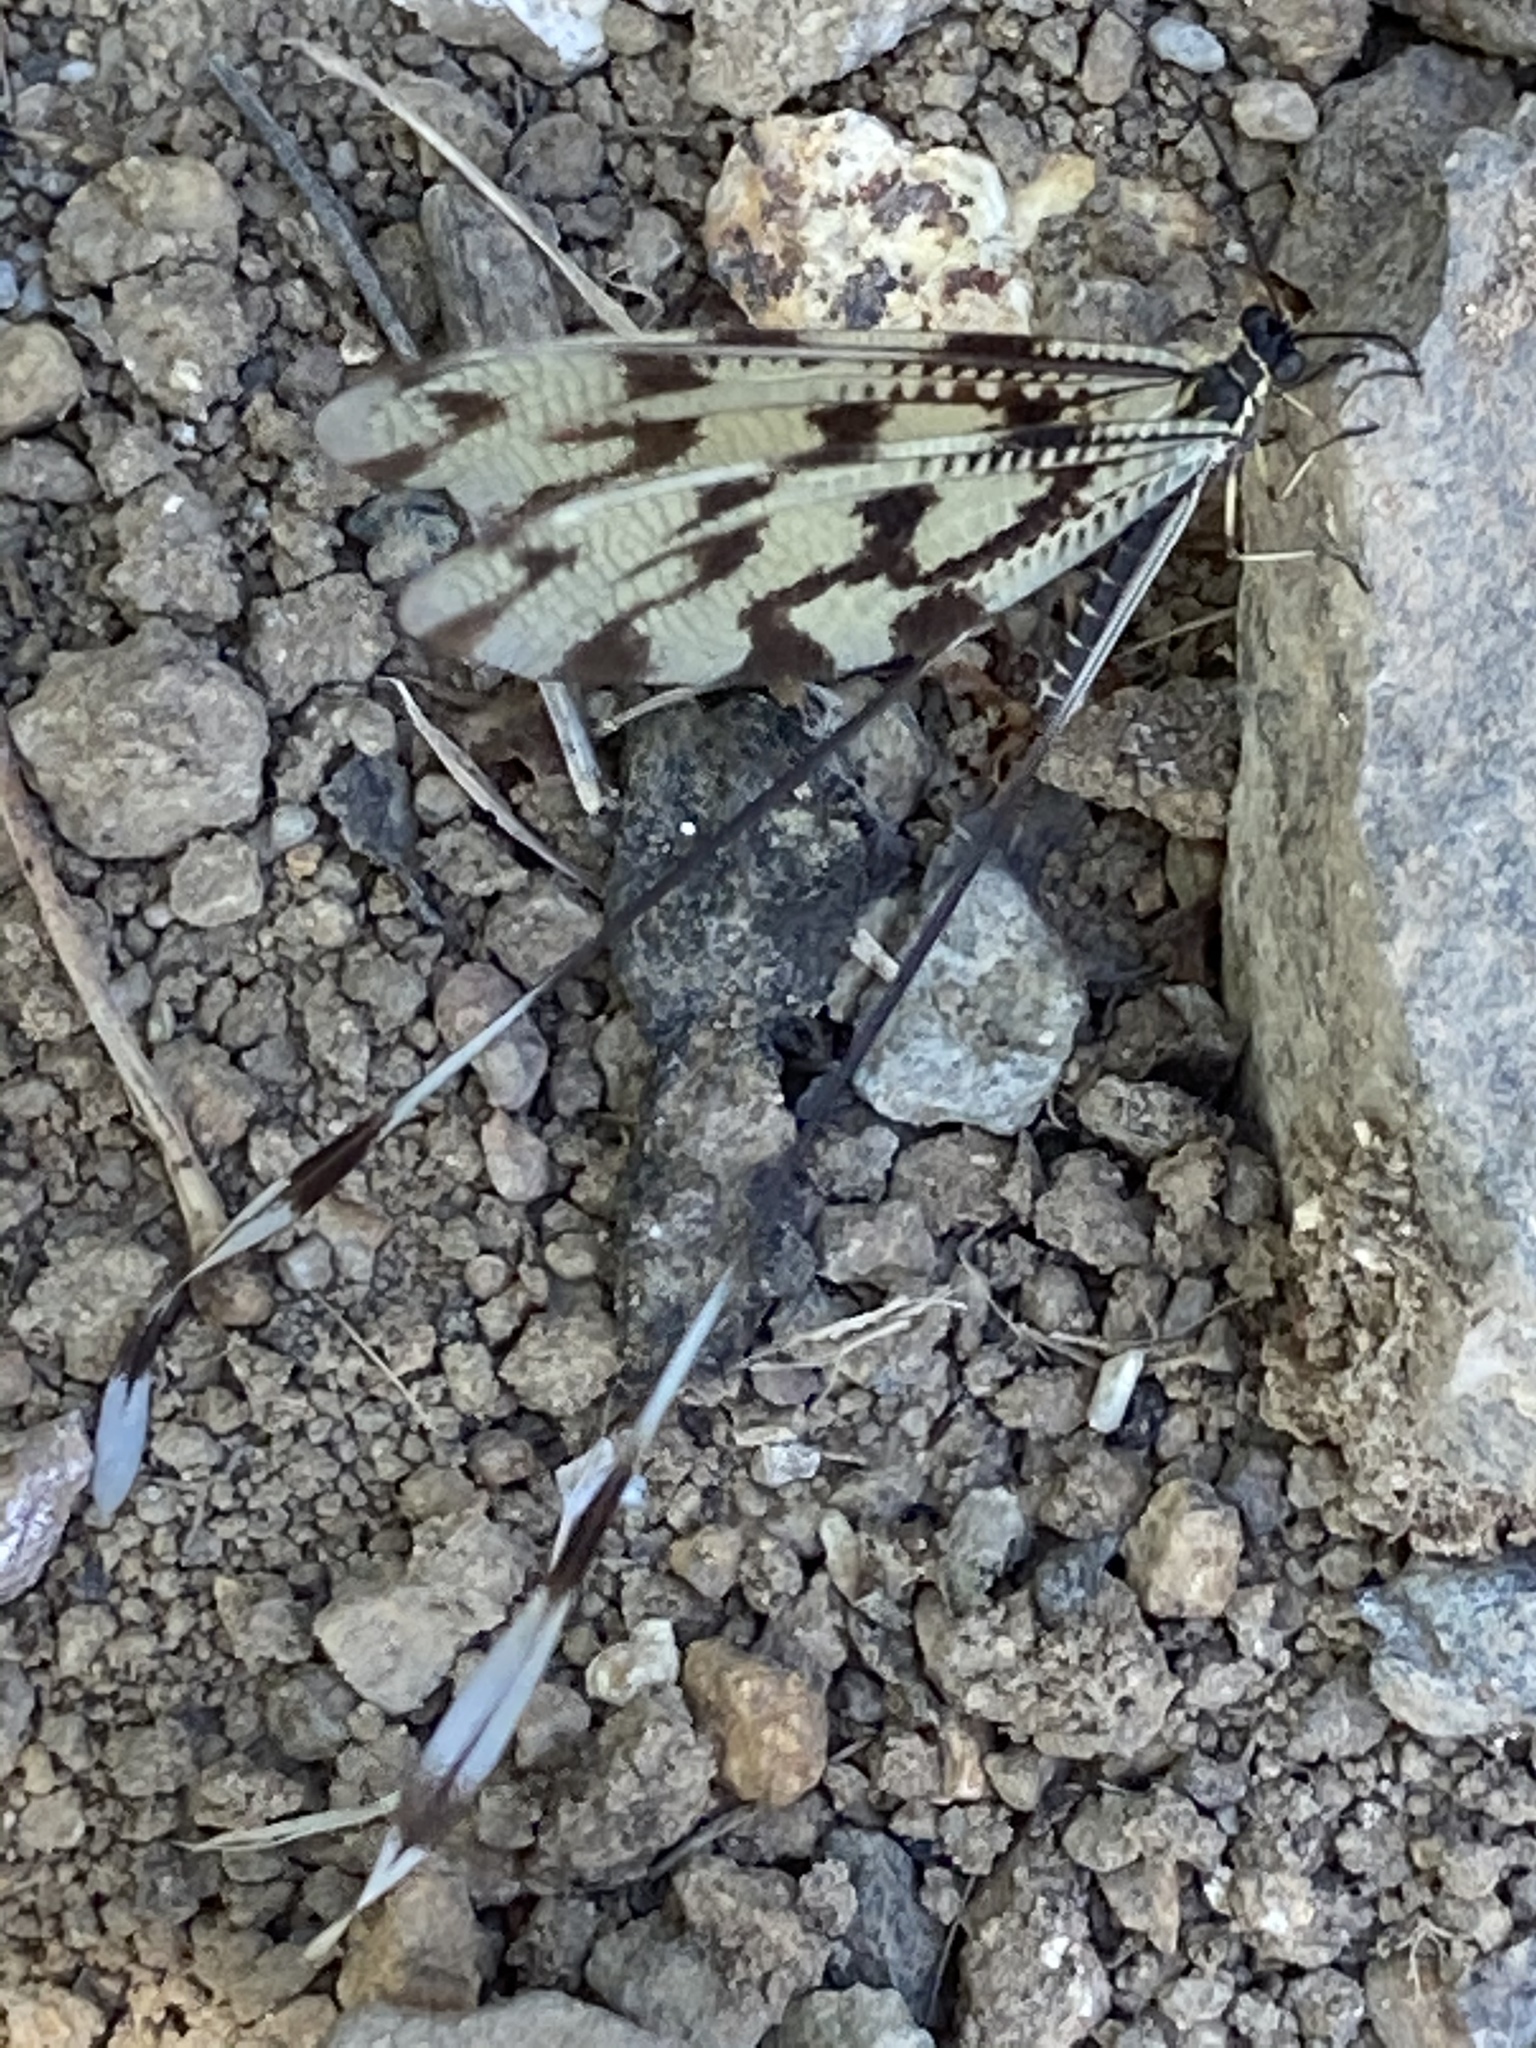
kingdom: Animalia
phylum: Arthropoda
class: Insecta
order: Neuroptera
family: Nemopteridae
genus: Nemoptera
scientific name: Nemoptera sinuata
